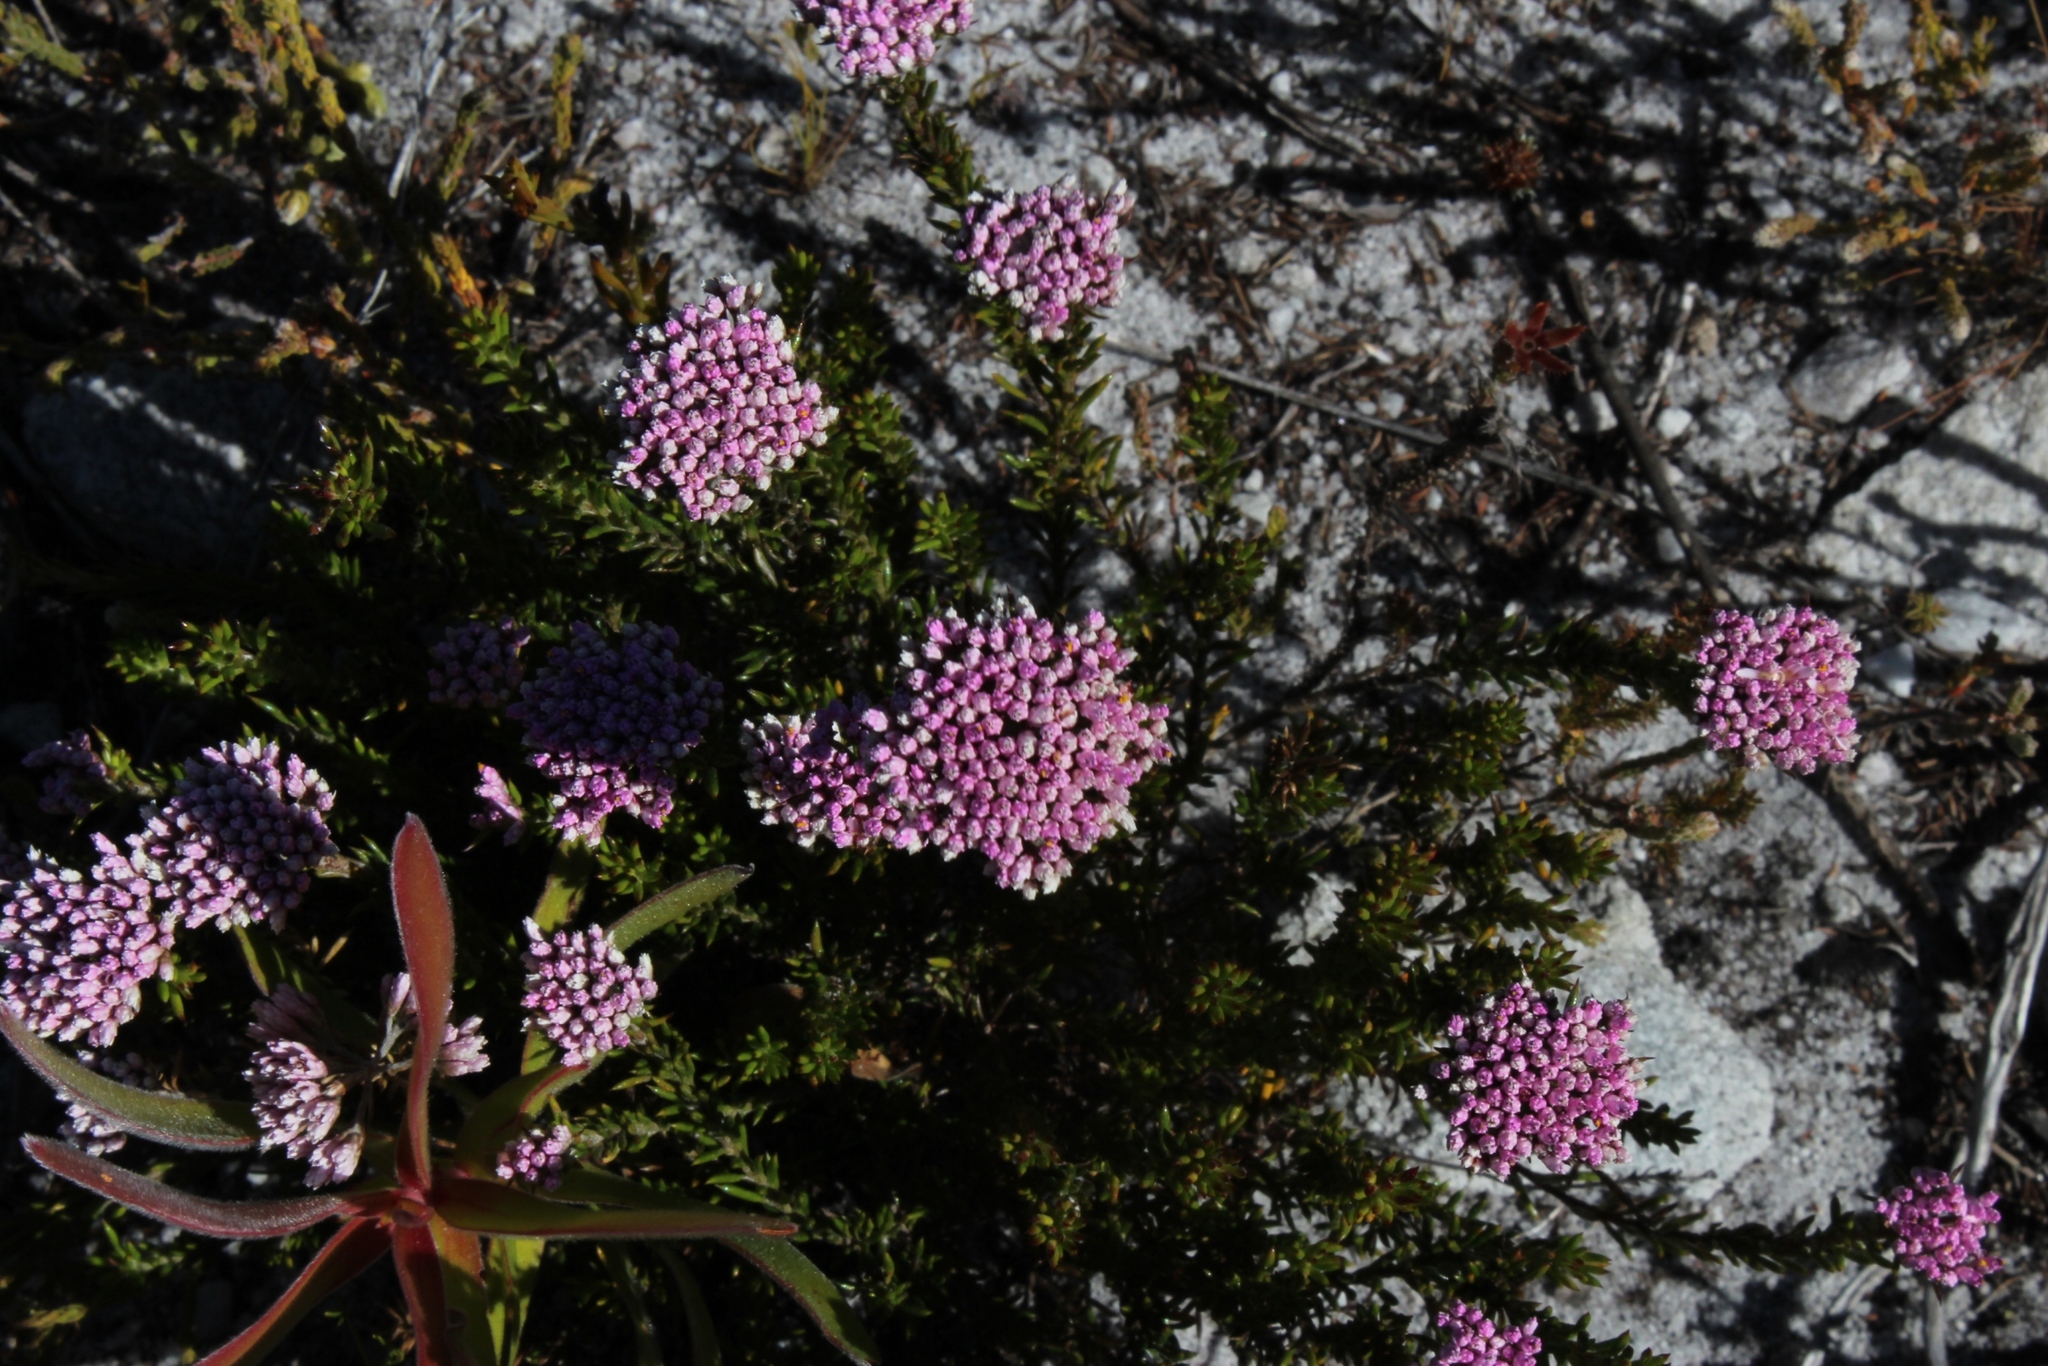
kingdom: Plantae
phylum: Tracheophyta
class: Magnoliopsida
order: Asterales
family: Asteraceae
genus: Metalasia
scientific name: Metalasia cymbifolia
